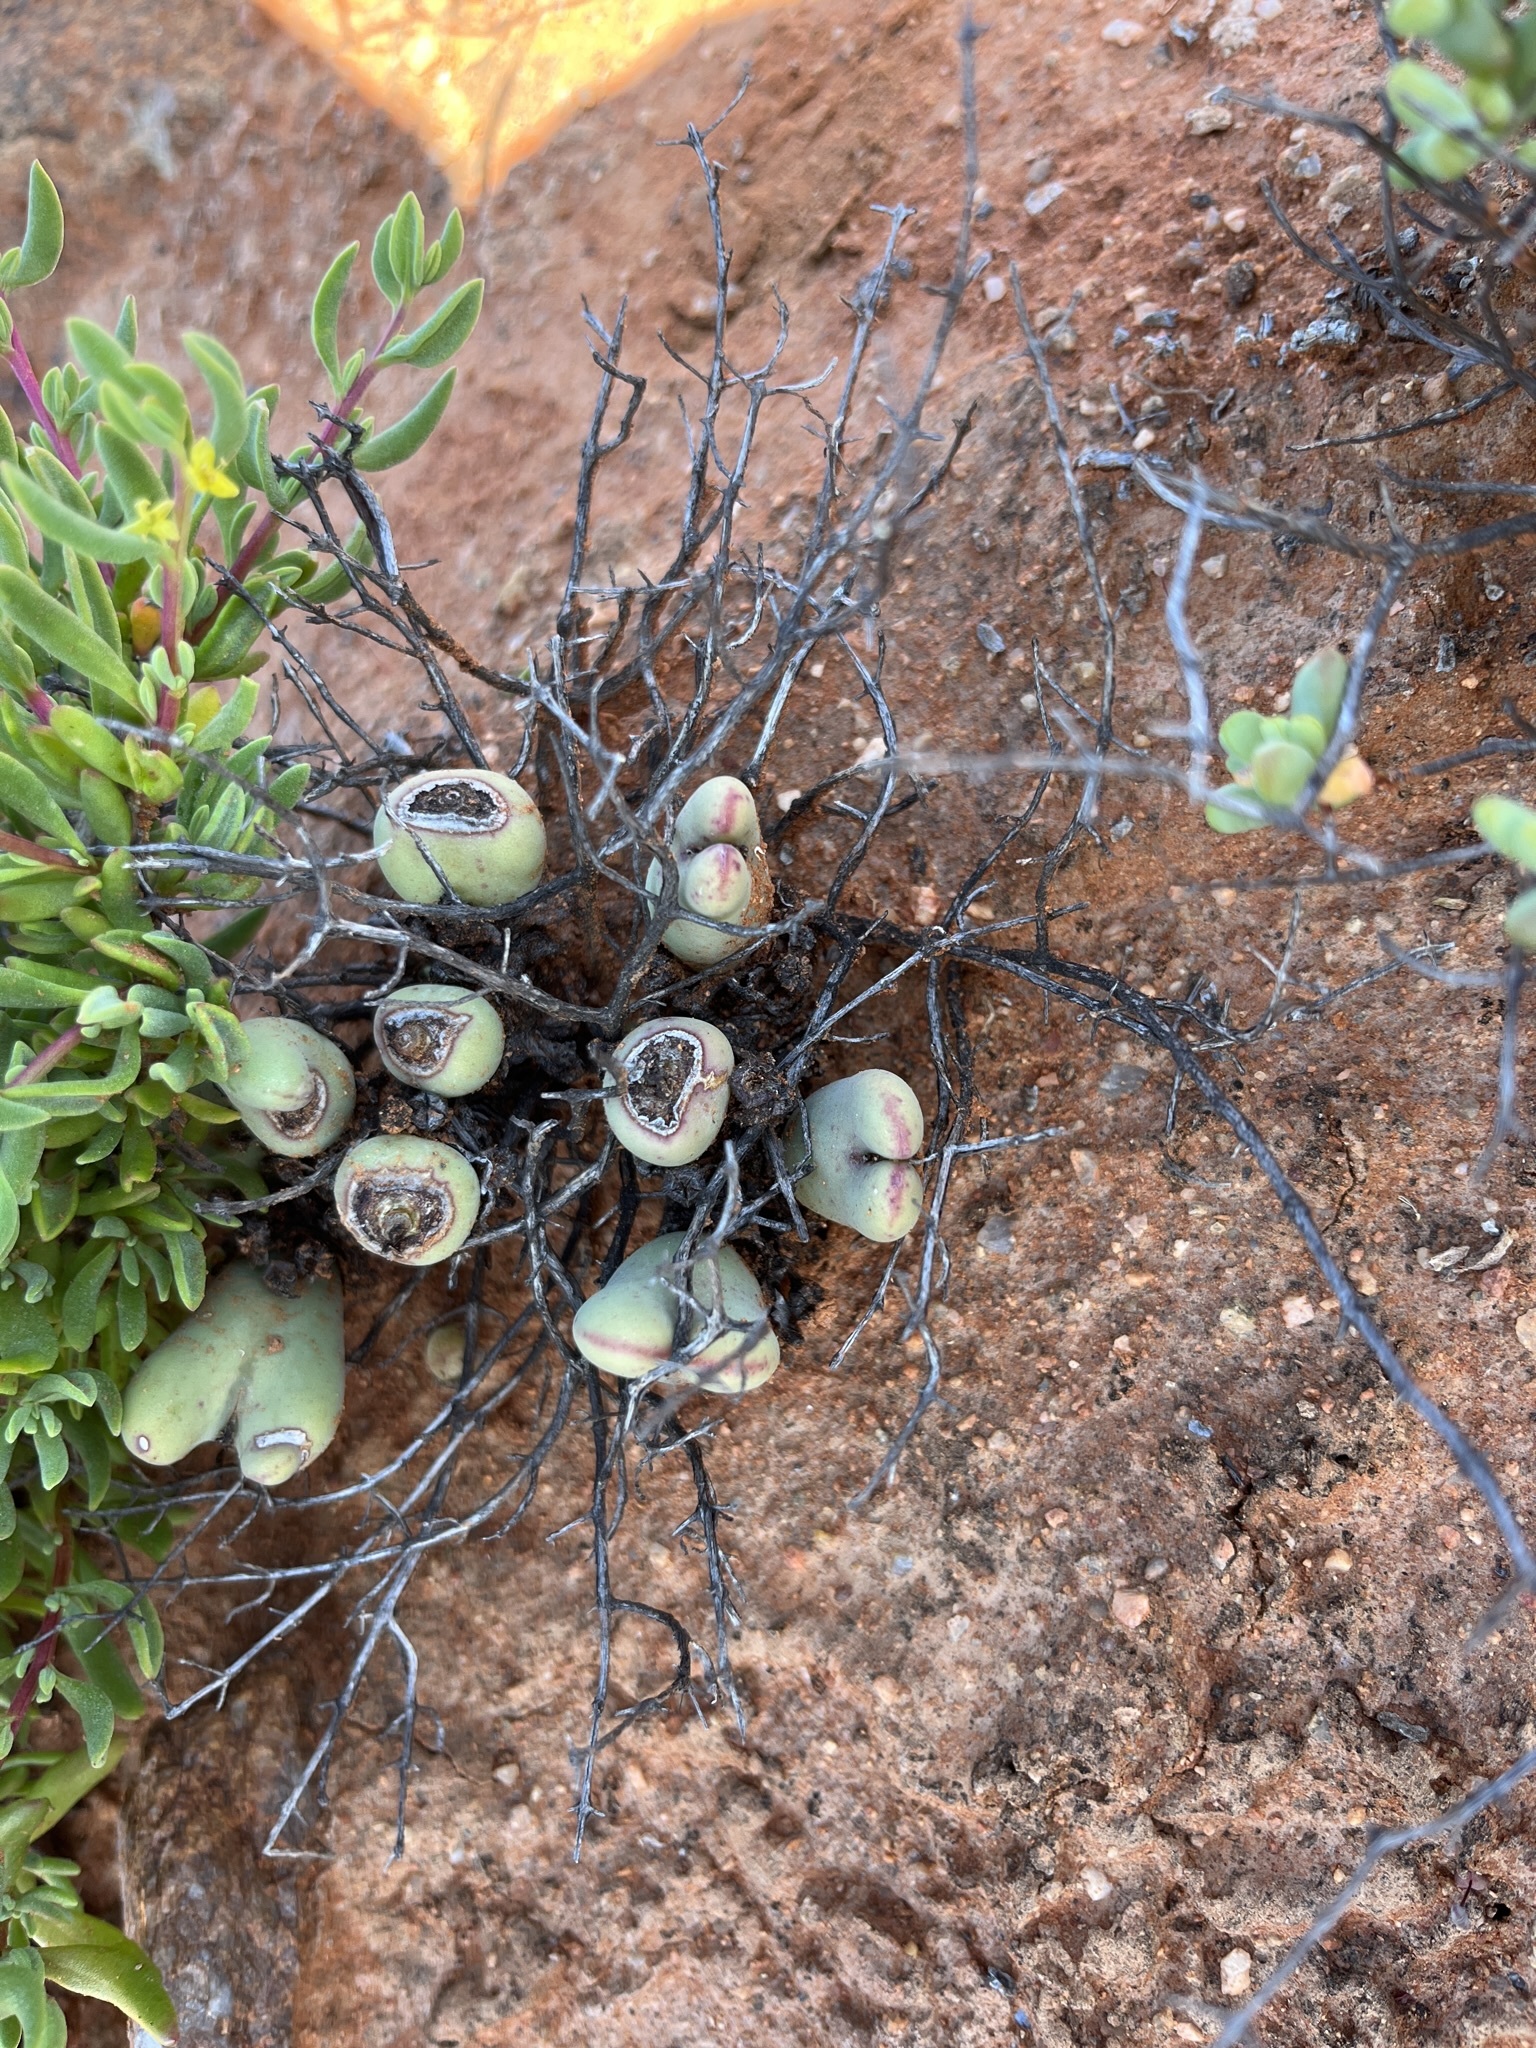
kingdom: Plantae
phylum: Tracheophyta
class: Magnoliopsida
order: Caryophyllales
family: Aizoaceae
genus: Conophytum
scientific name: Conophytum bilobum
